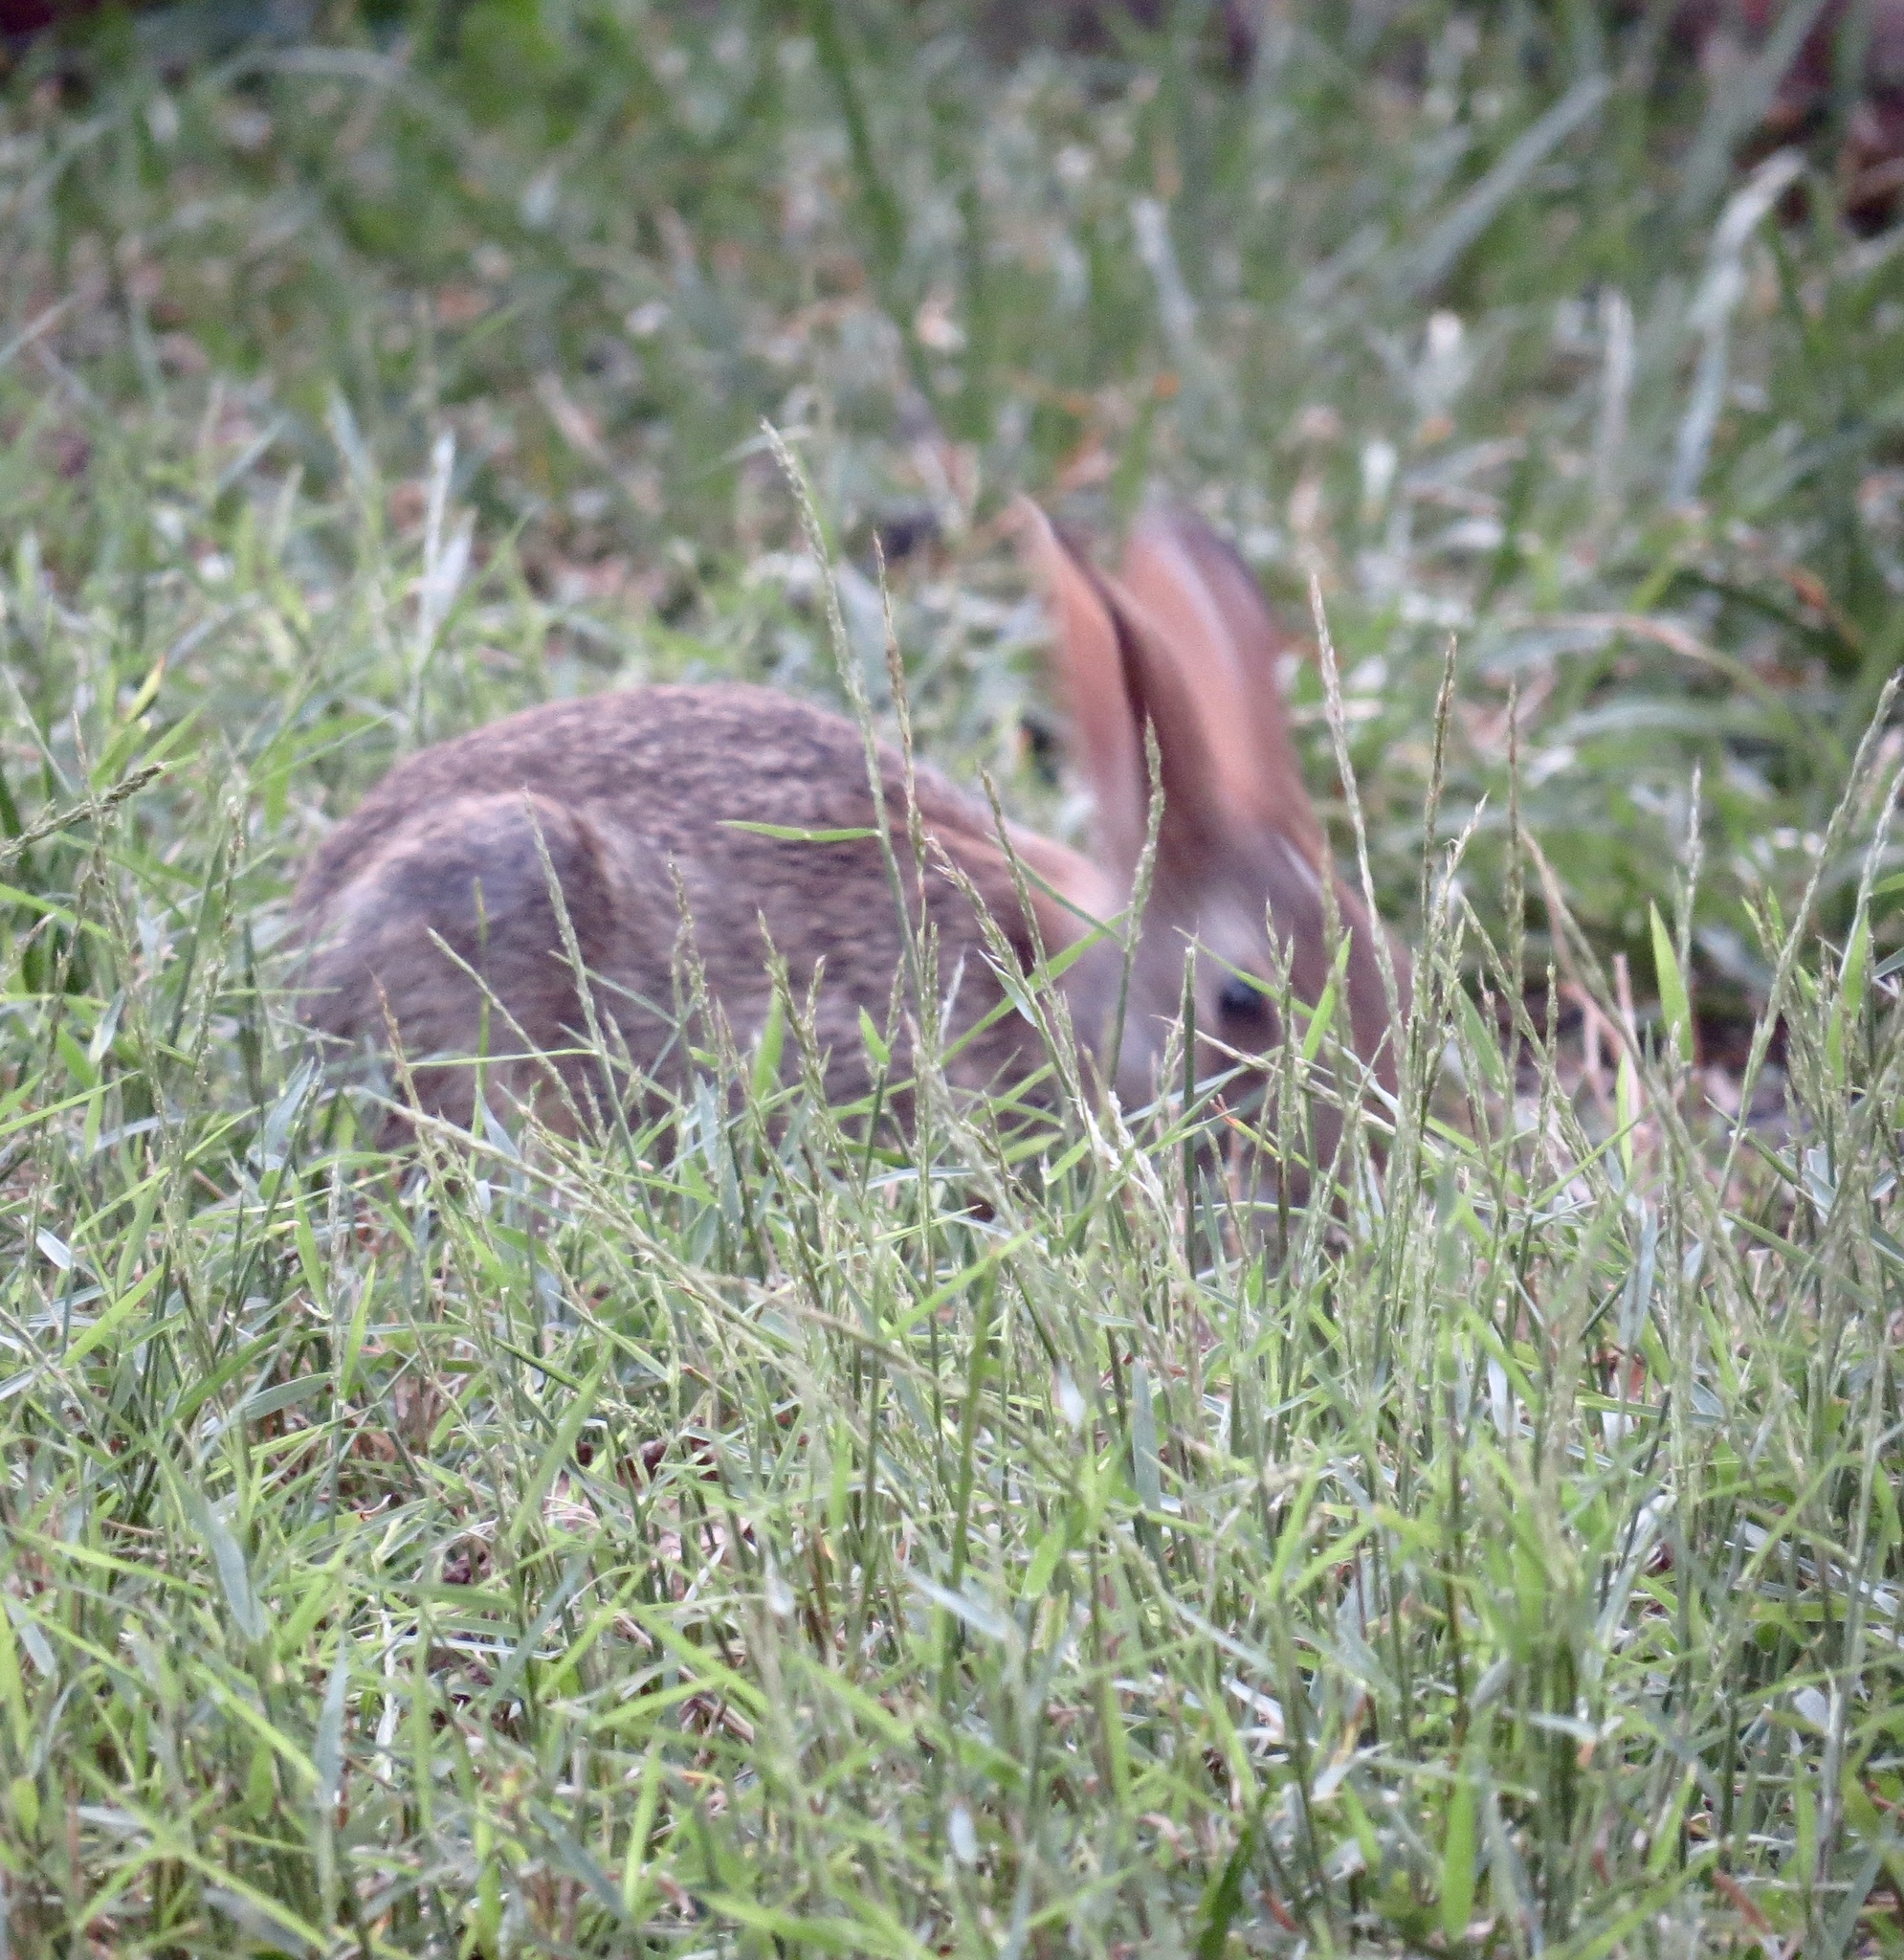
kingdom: Animalia
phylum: Chordata
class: Mammalia
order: Lagomorpha
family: Leporidae
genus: Sylvilagus
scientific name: Sylvilagus floridanus
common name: Eastern cottontail
